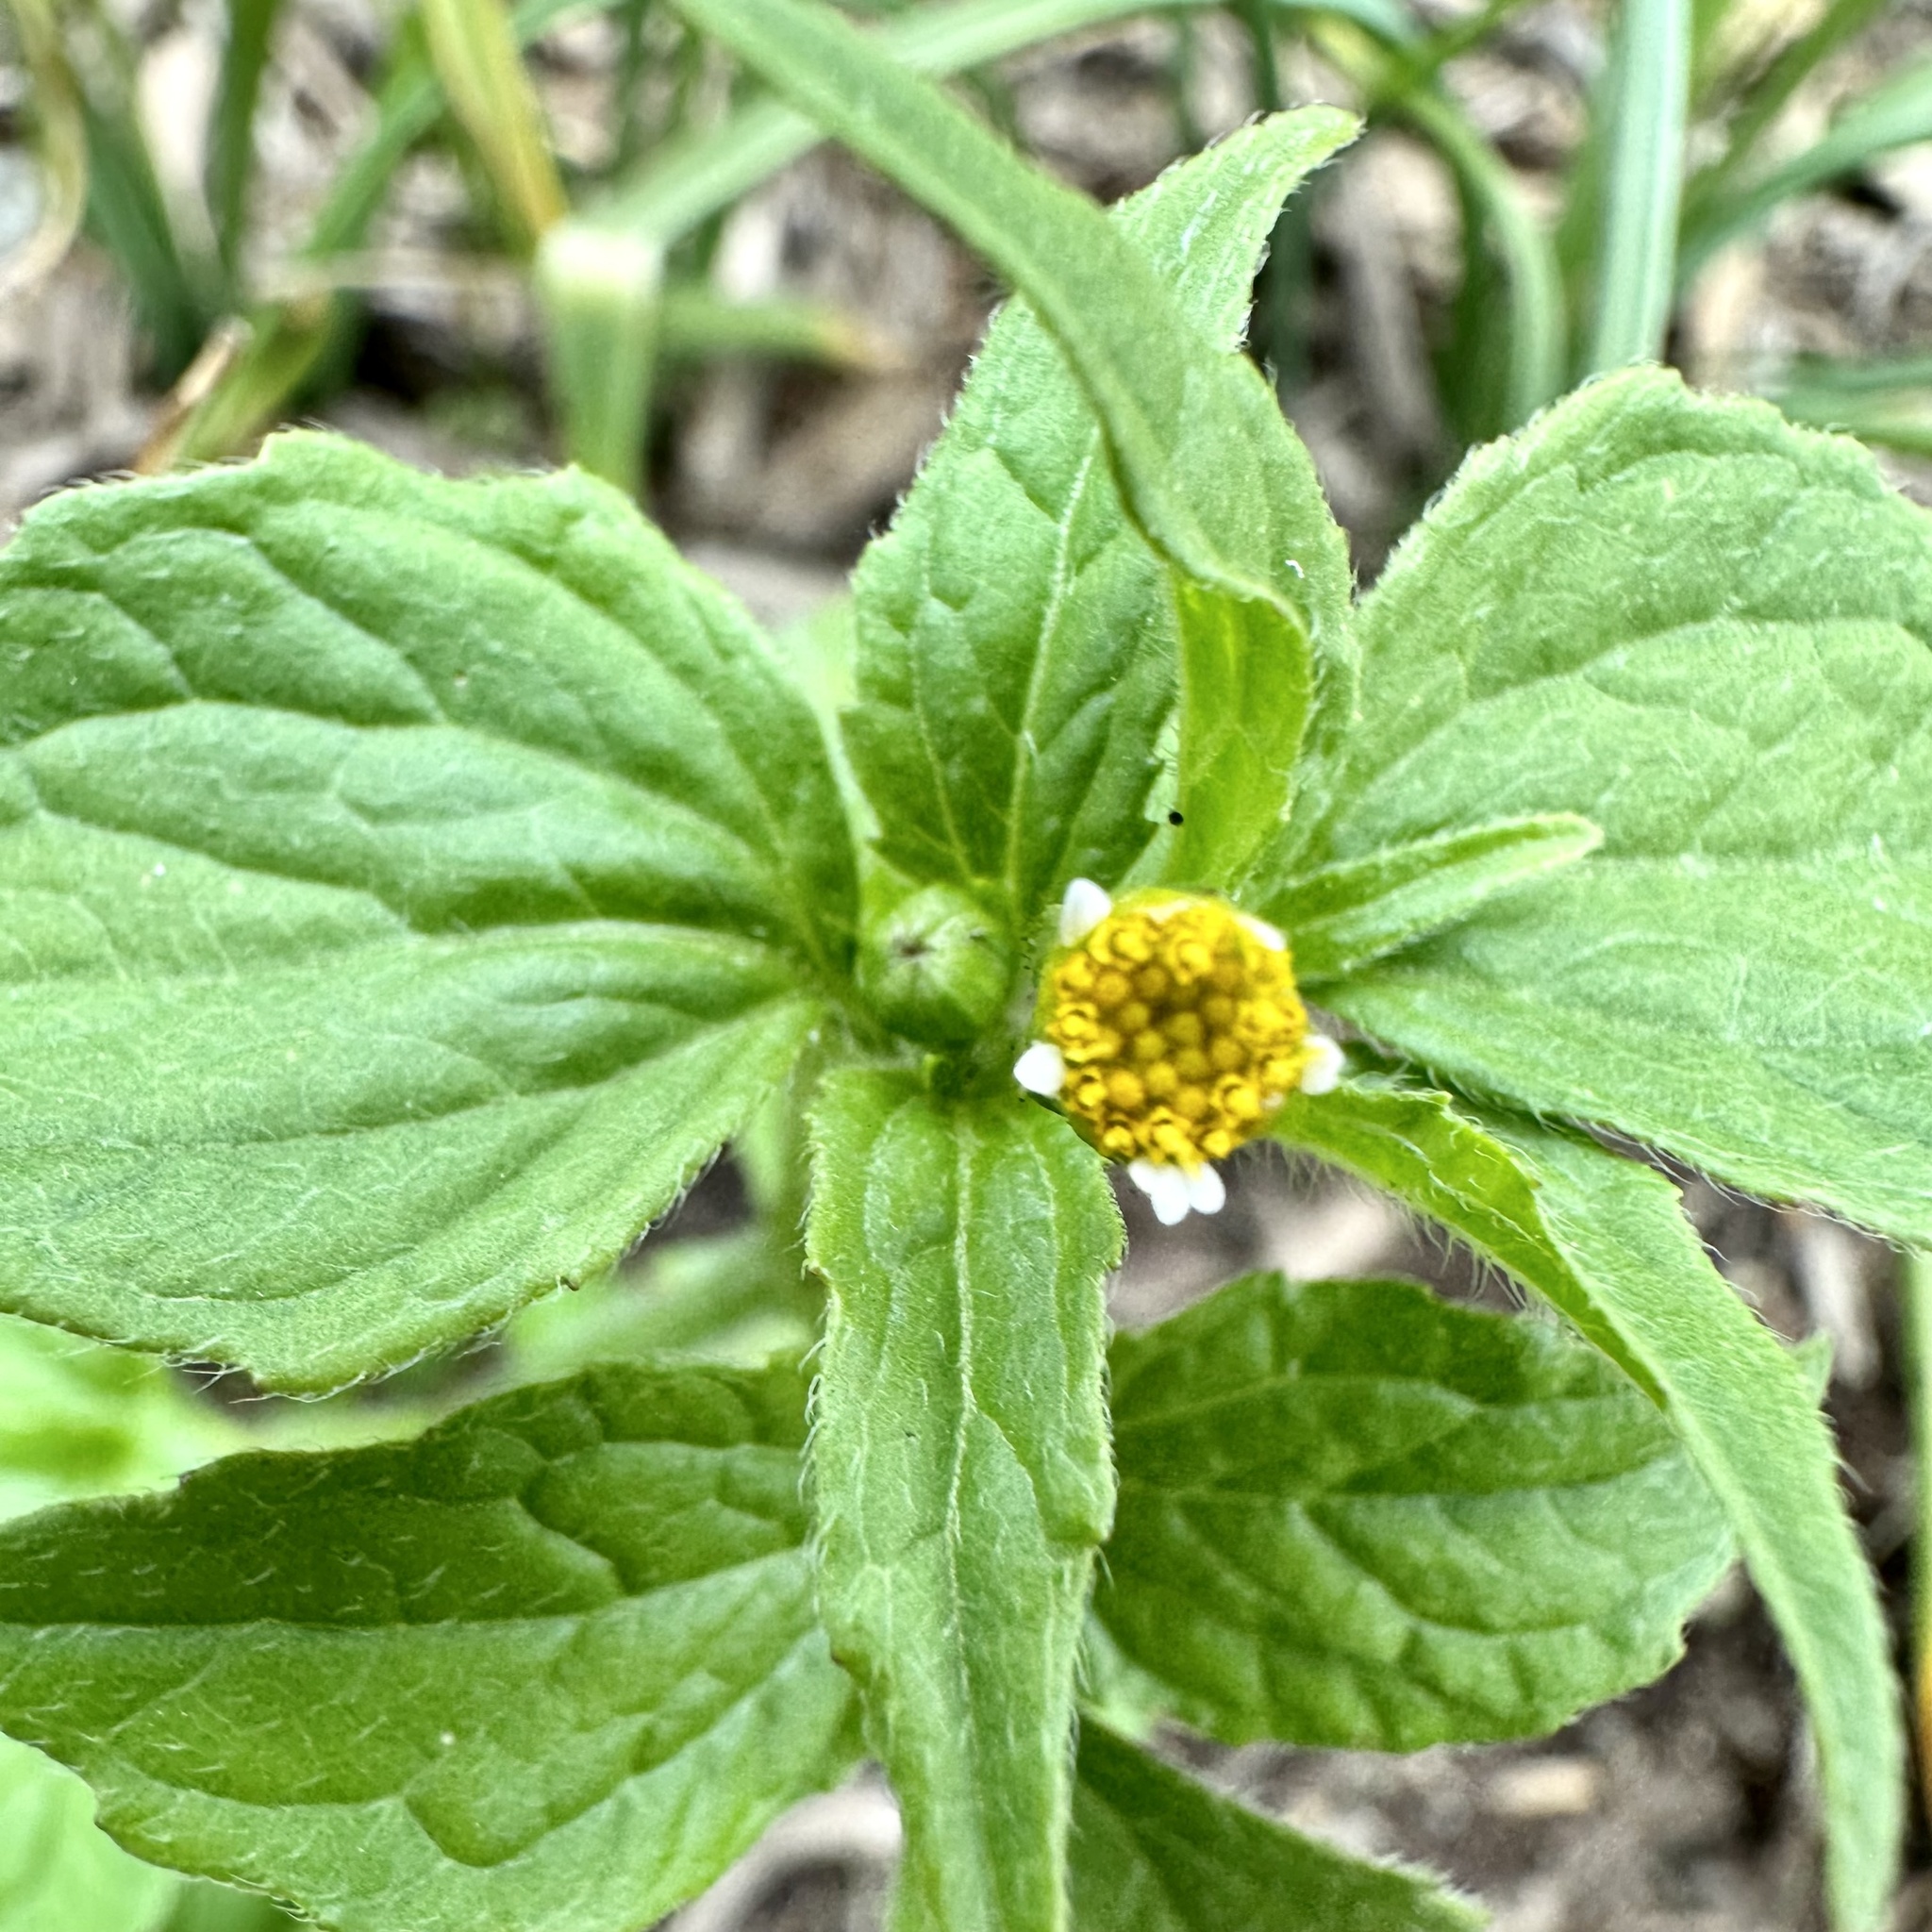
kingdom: Plantae
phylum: Tracheophyta
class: Magnoliopsida
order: Asterales
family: Asteraceae
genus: Galinsoga
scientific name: Galinsoga quadriradiata
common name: Shaggy soldier
